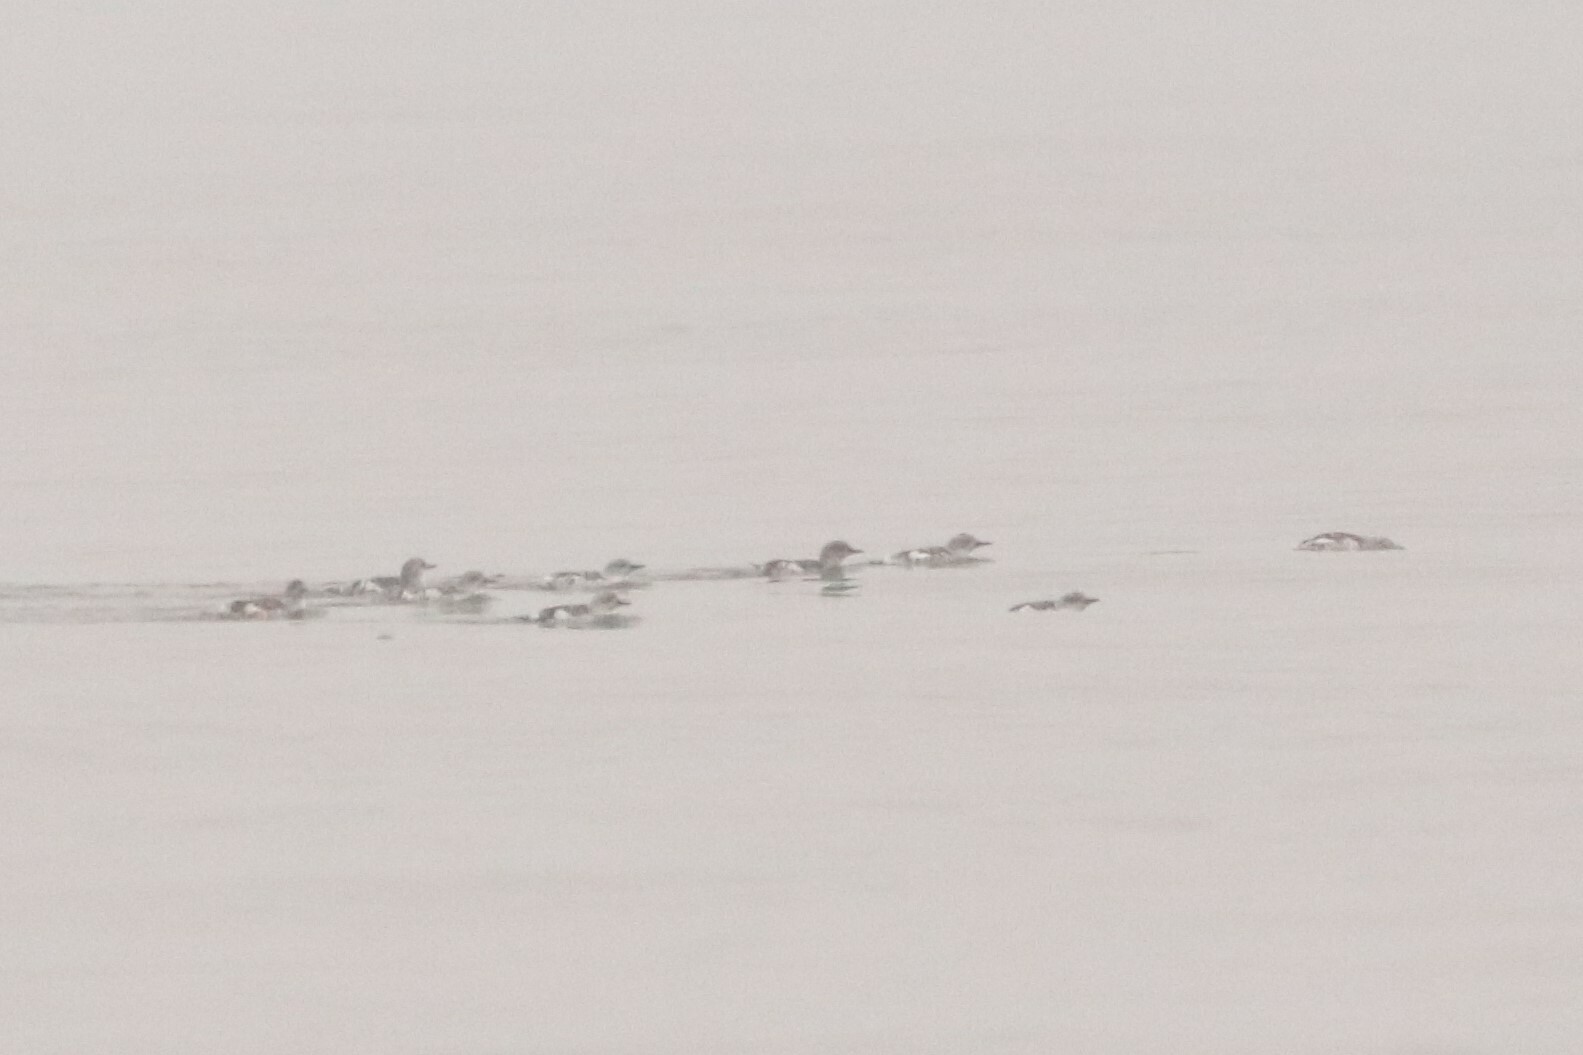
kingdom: Animalia
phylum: Chordata
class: Aves
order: Charadriiformes
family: Alcidae
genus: Cepphus
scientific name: Cepphus grylle
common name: Black guillemot
